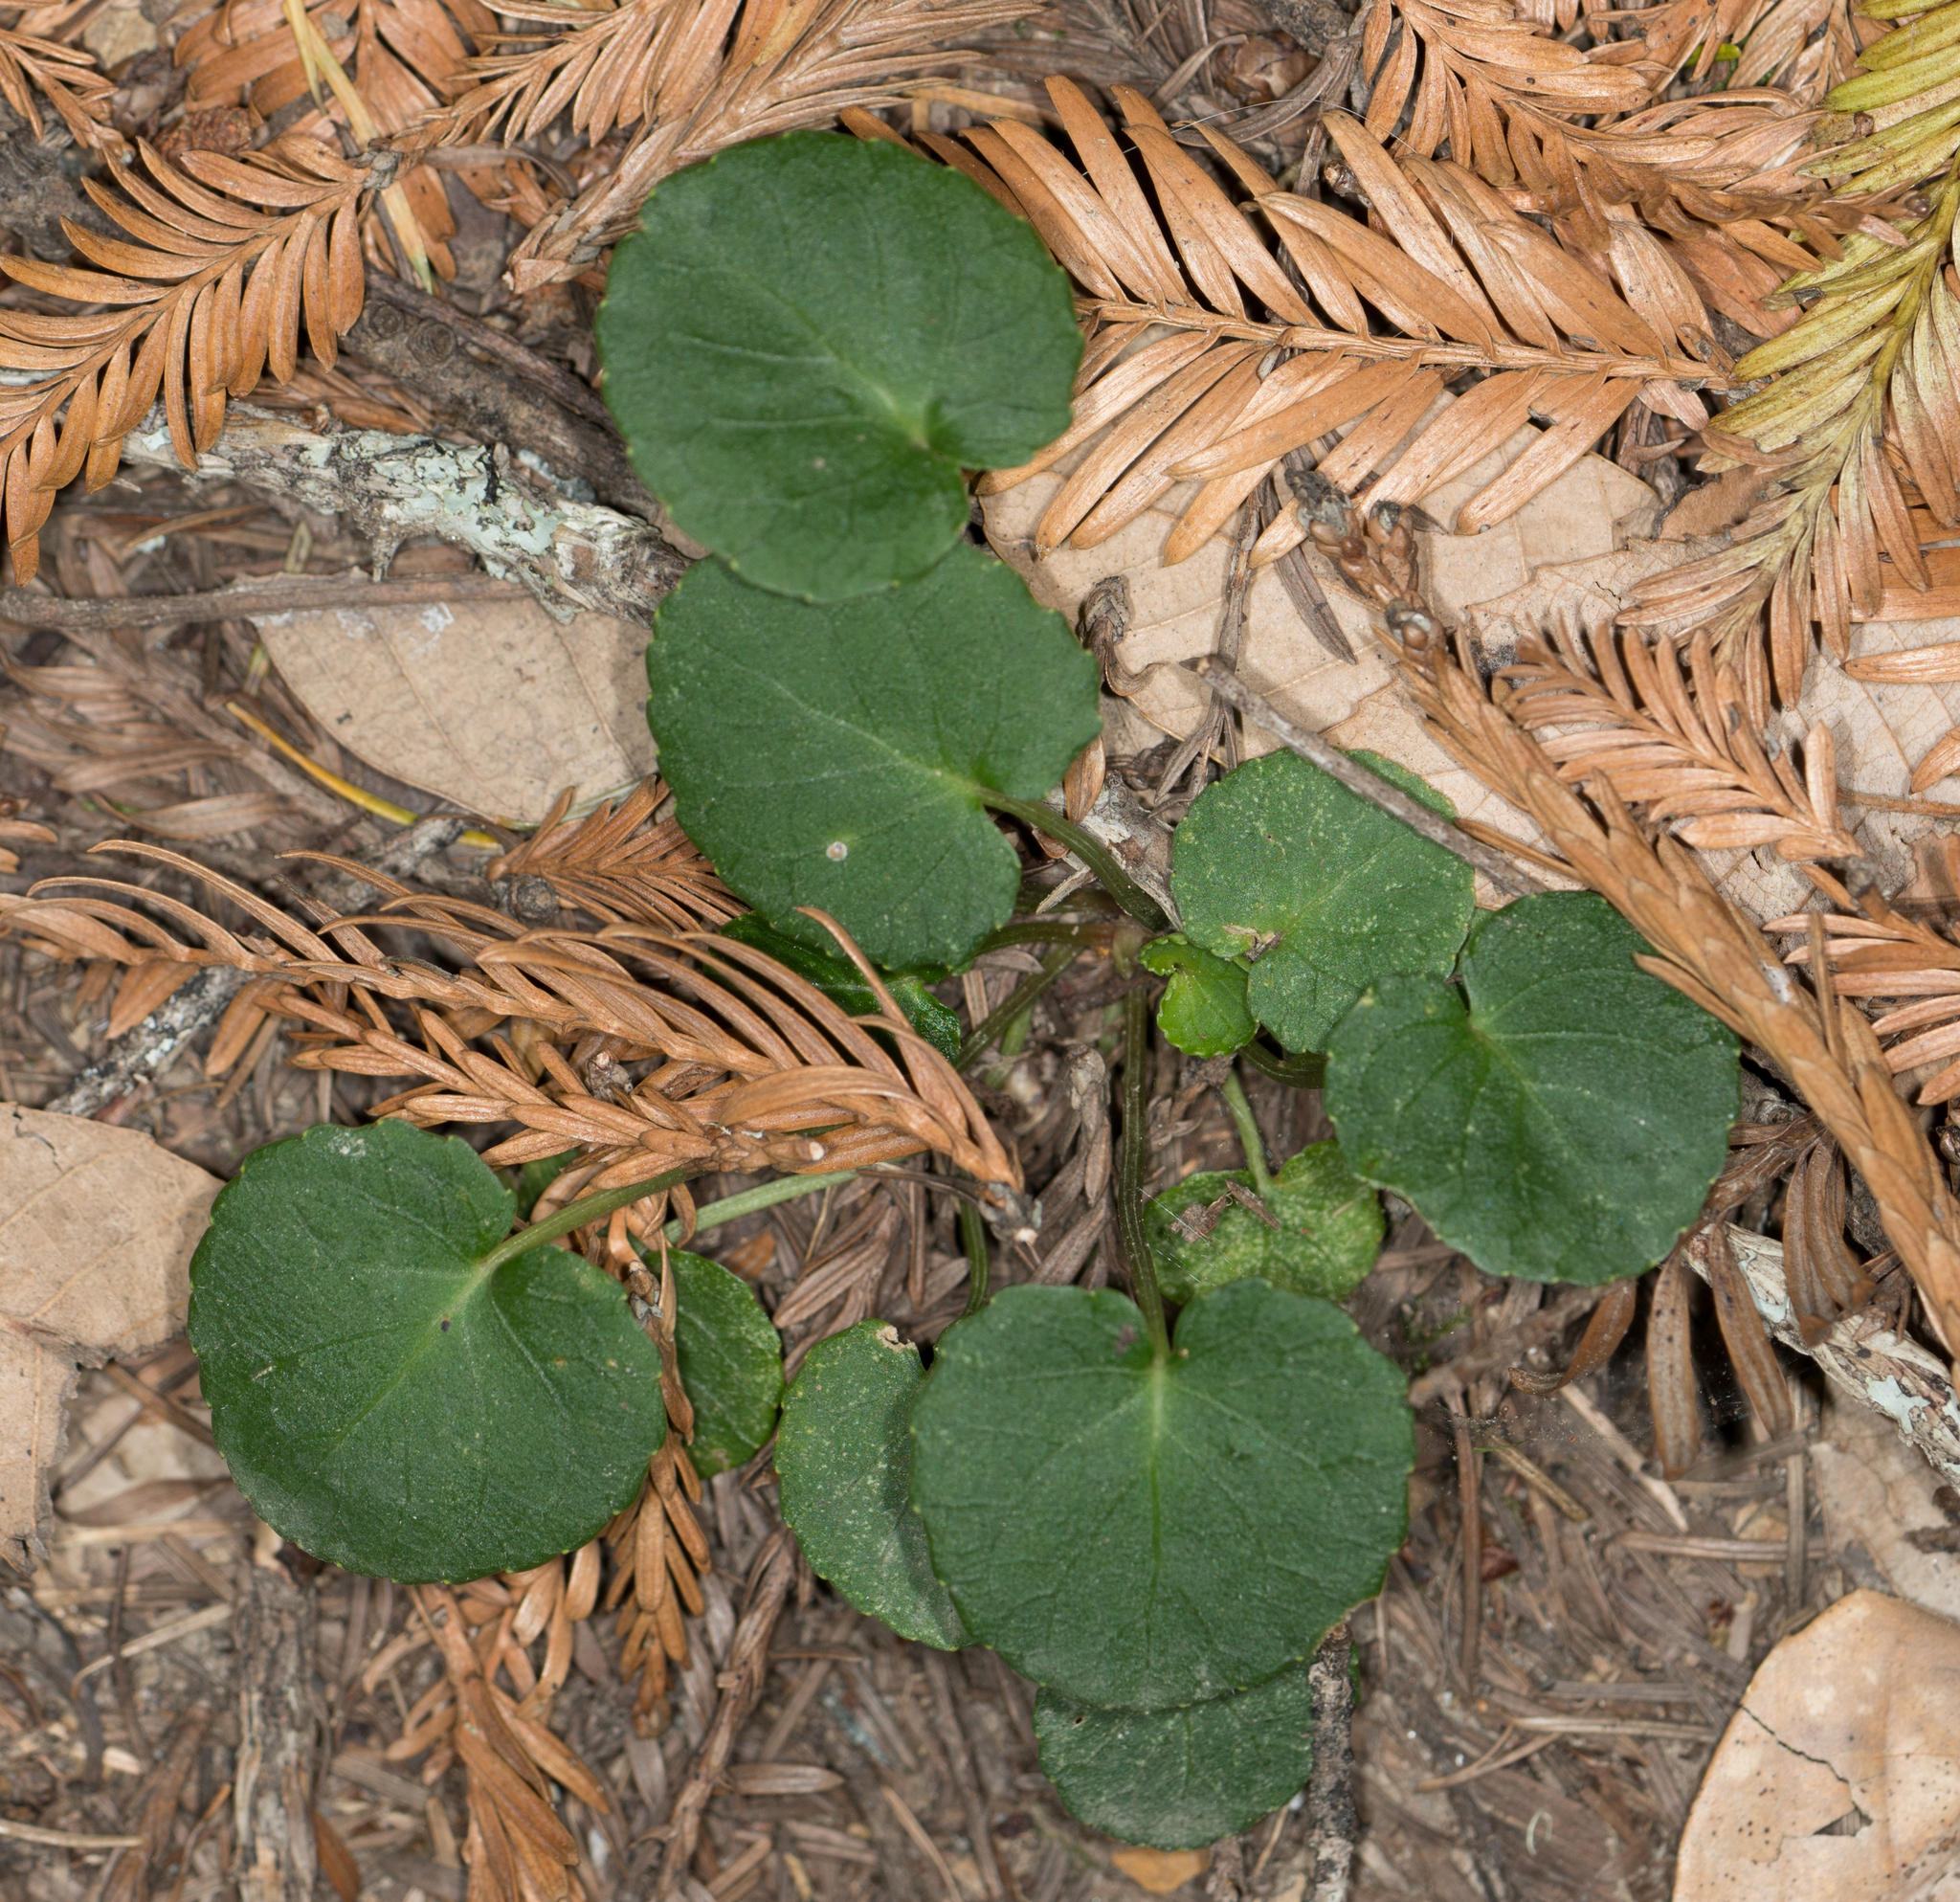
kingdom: Plantae
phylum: Tracheophyta
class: Magnoliopsida
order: Malpighiales
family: Violaceae
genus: Viola
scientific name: Viola sempervirens
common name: Evergreen violet
